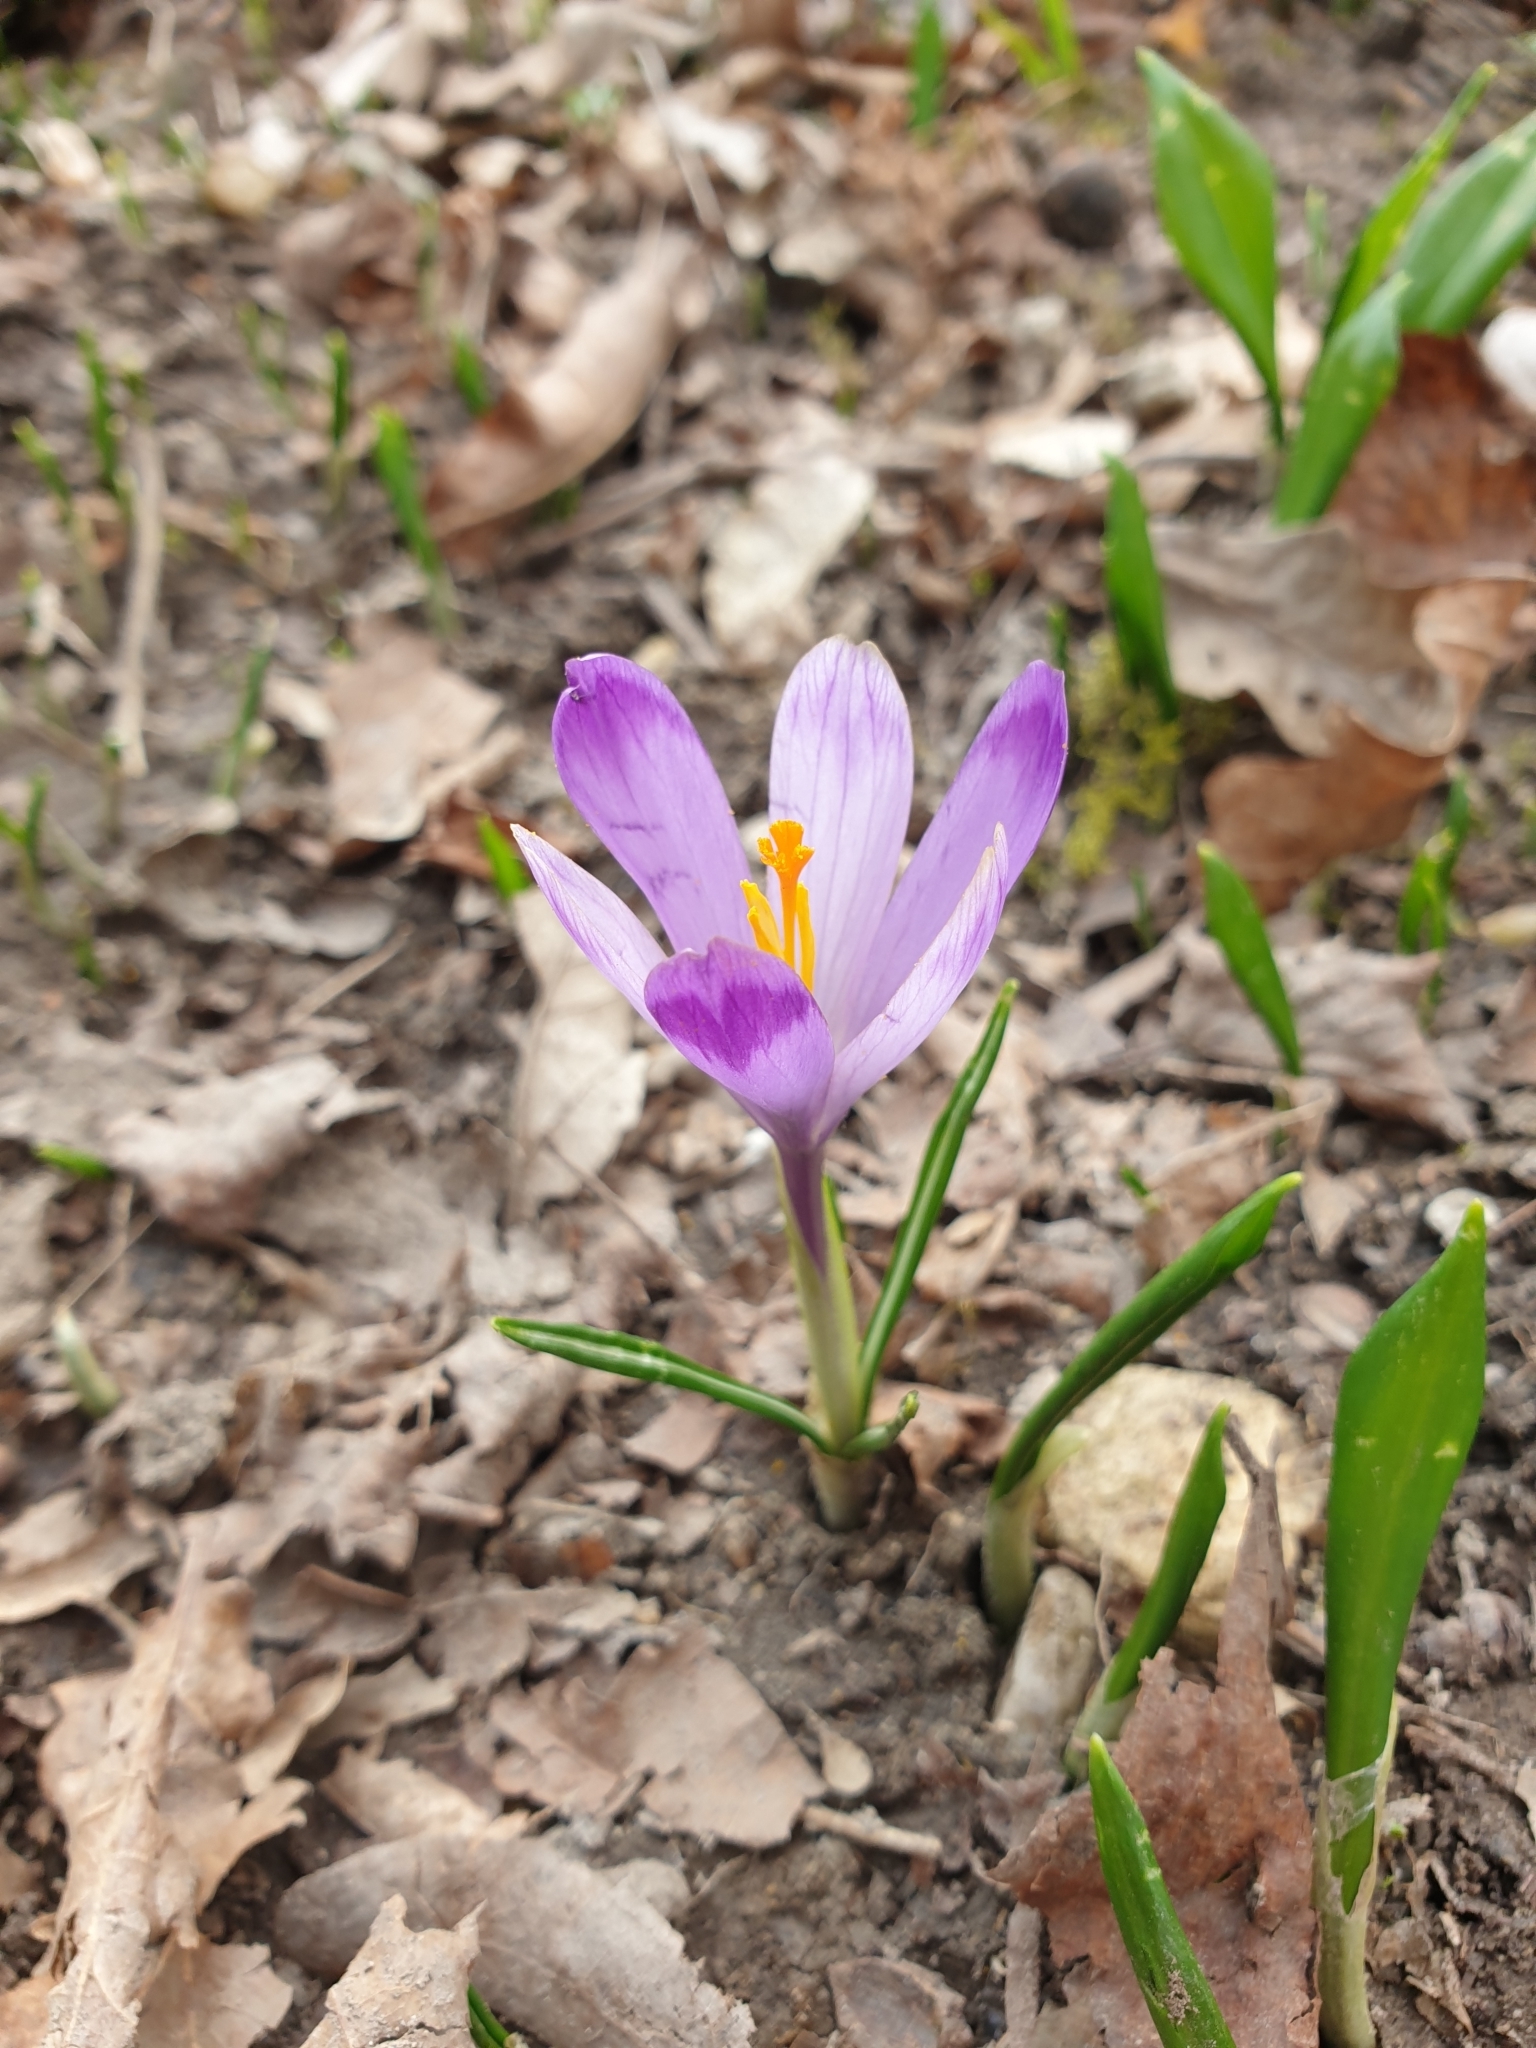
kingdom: Plantae
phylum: Tracheophyta
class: Liliopsida
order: Asparagales
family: Iridaceae
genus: Crocus
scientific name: Crocus heuffelianus
